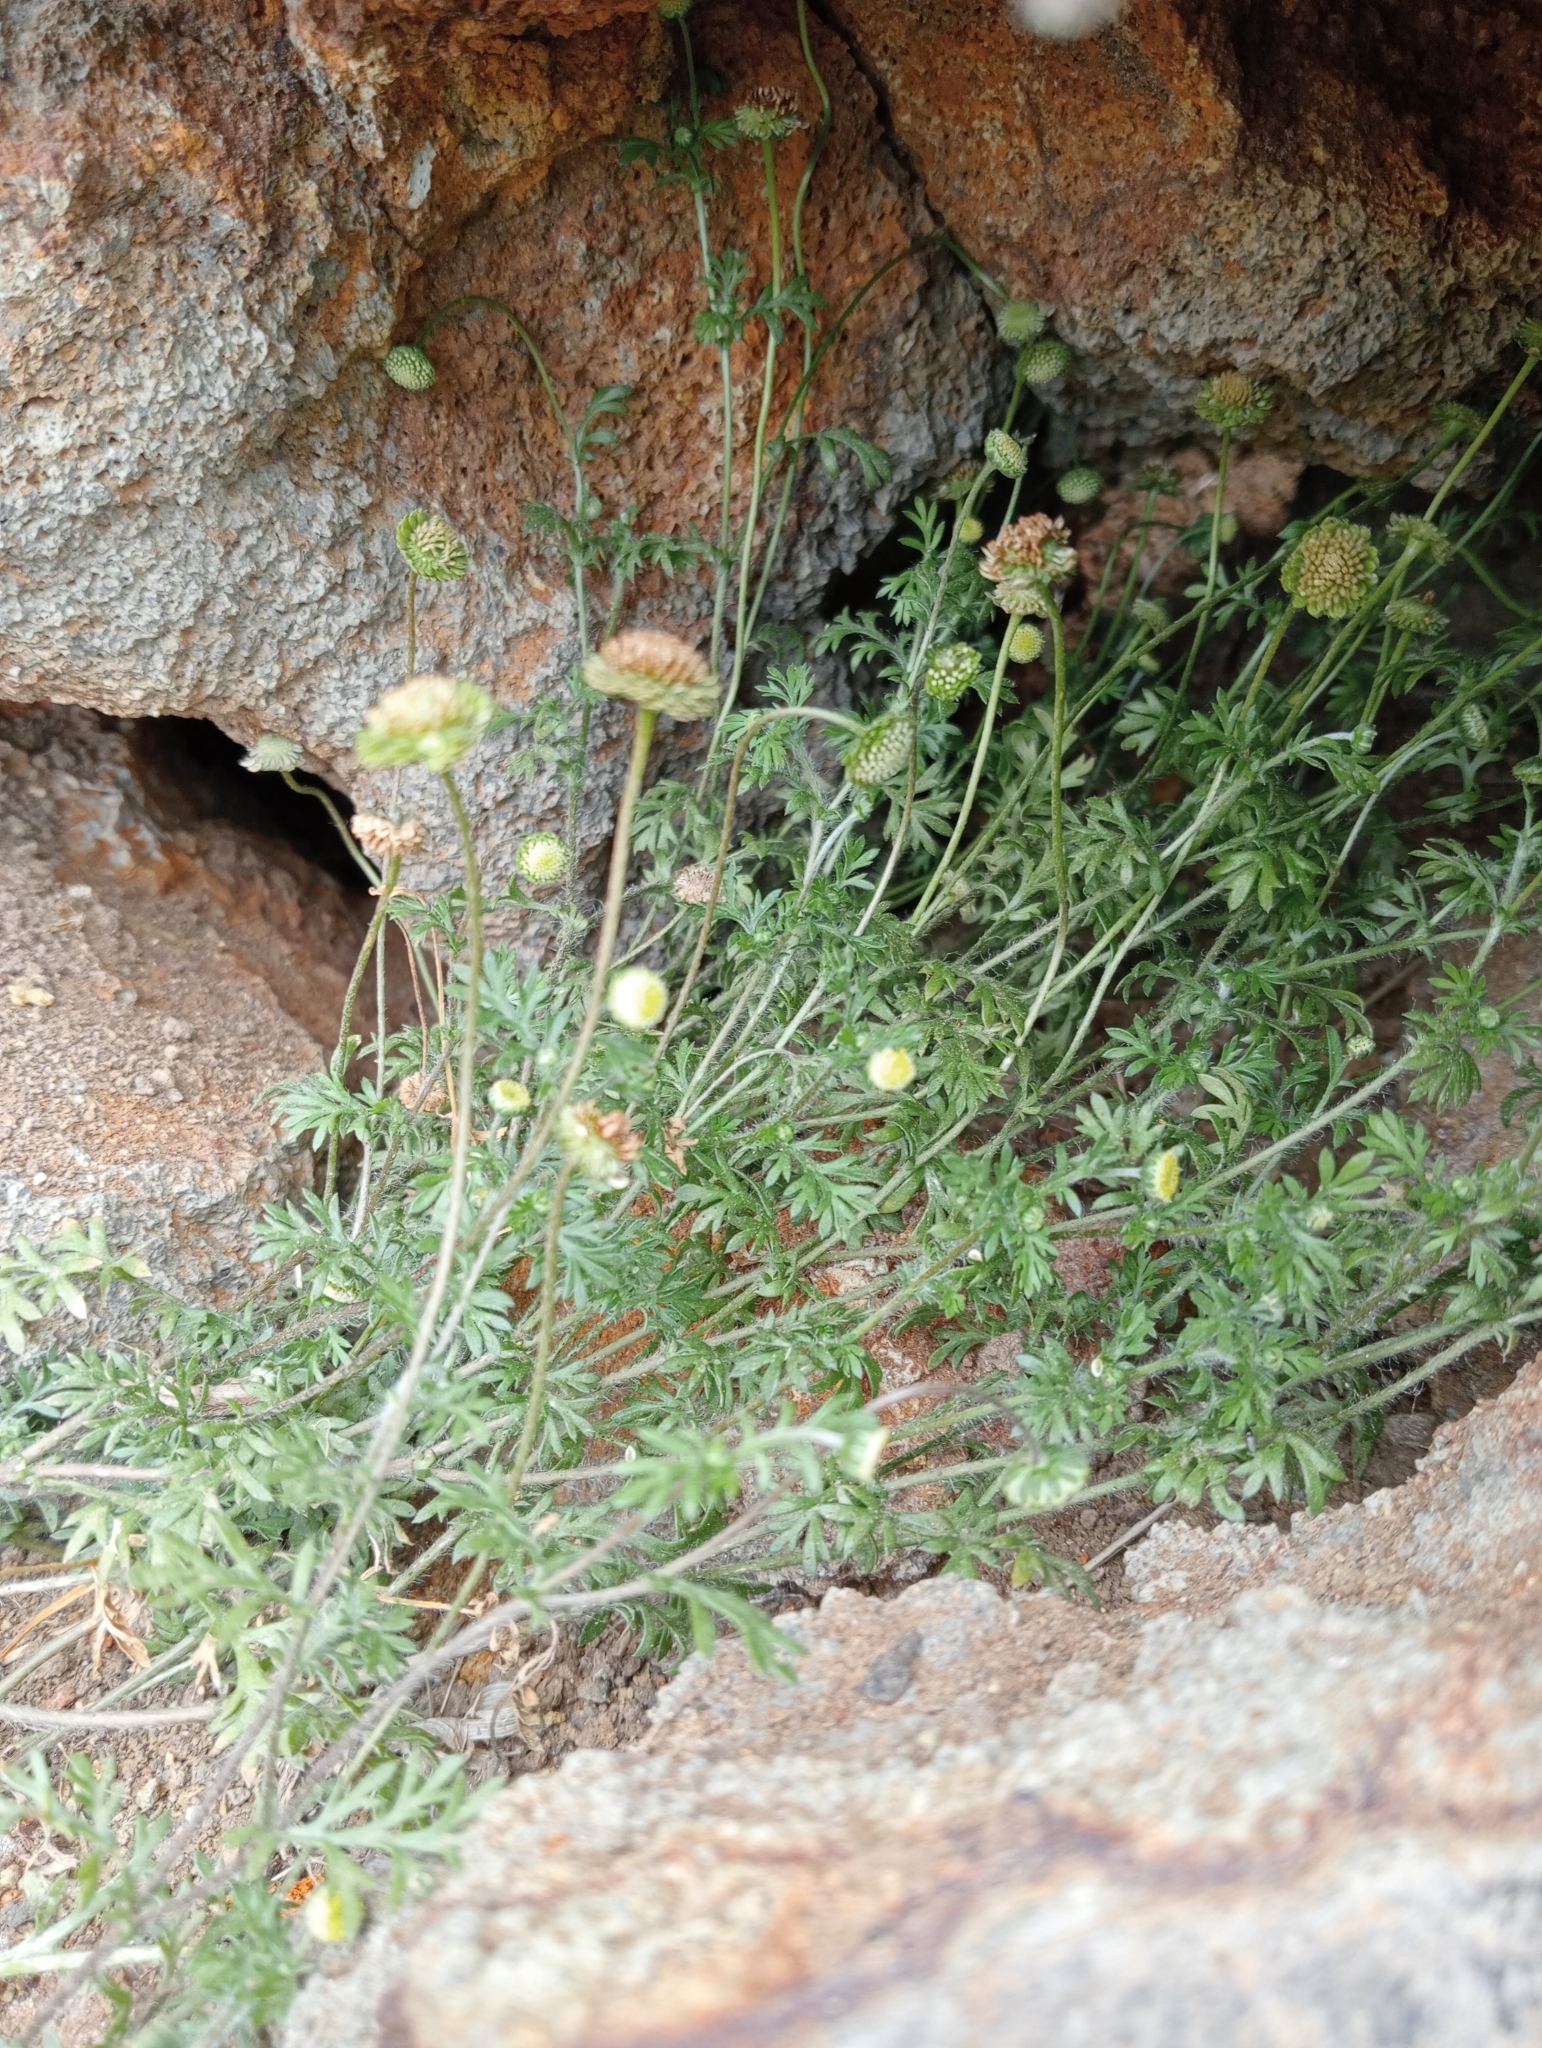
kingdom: Plantae
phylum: Tracheophyta
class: Magnoliopsida
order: Asterales
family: Asteraceae
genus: Cotula
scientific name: Cotula australis
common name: Australian waterbuttons
